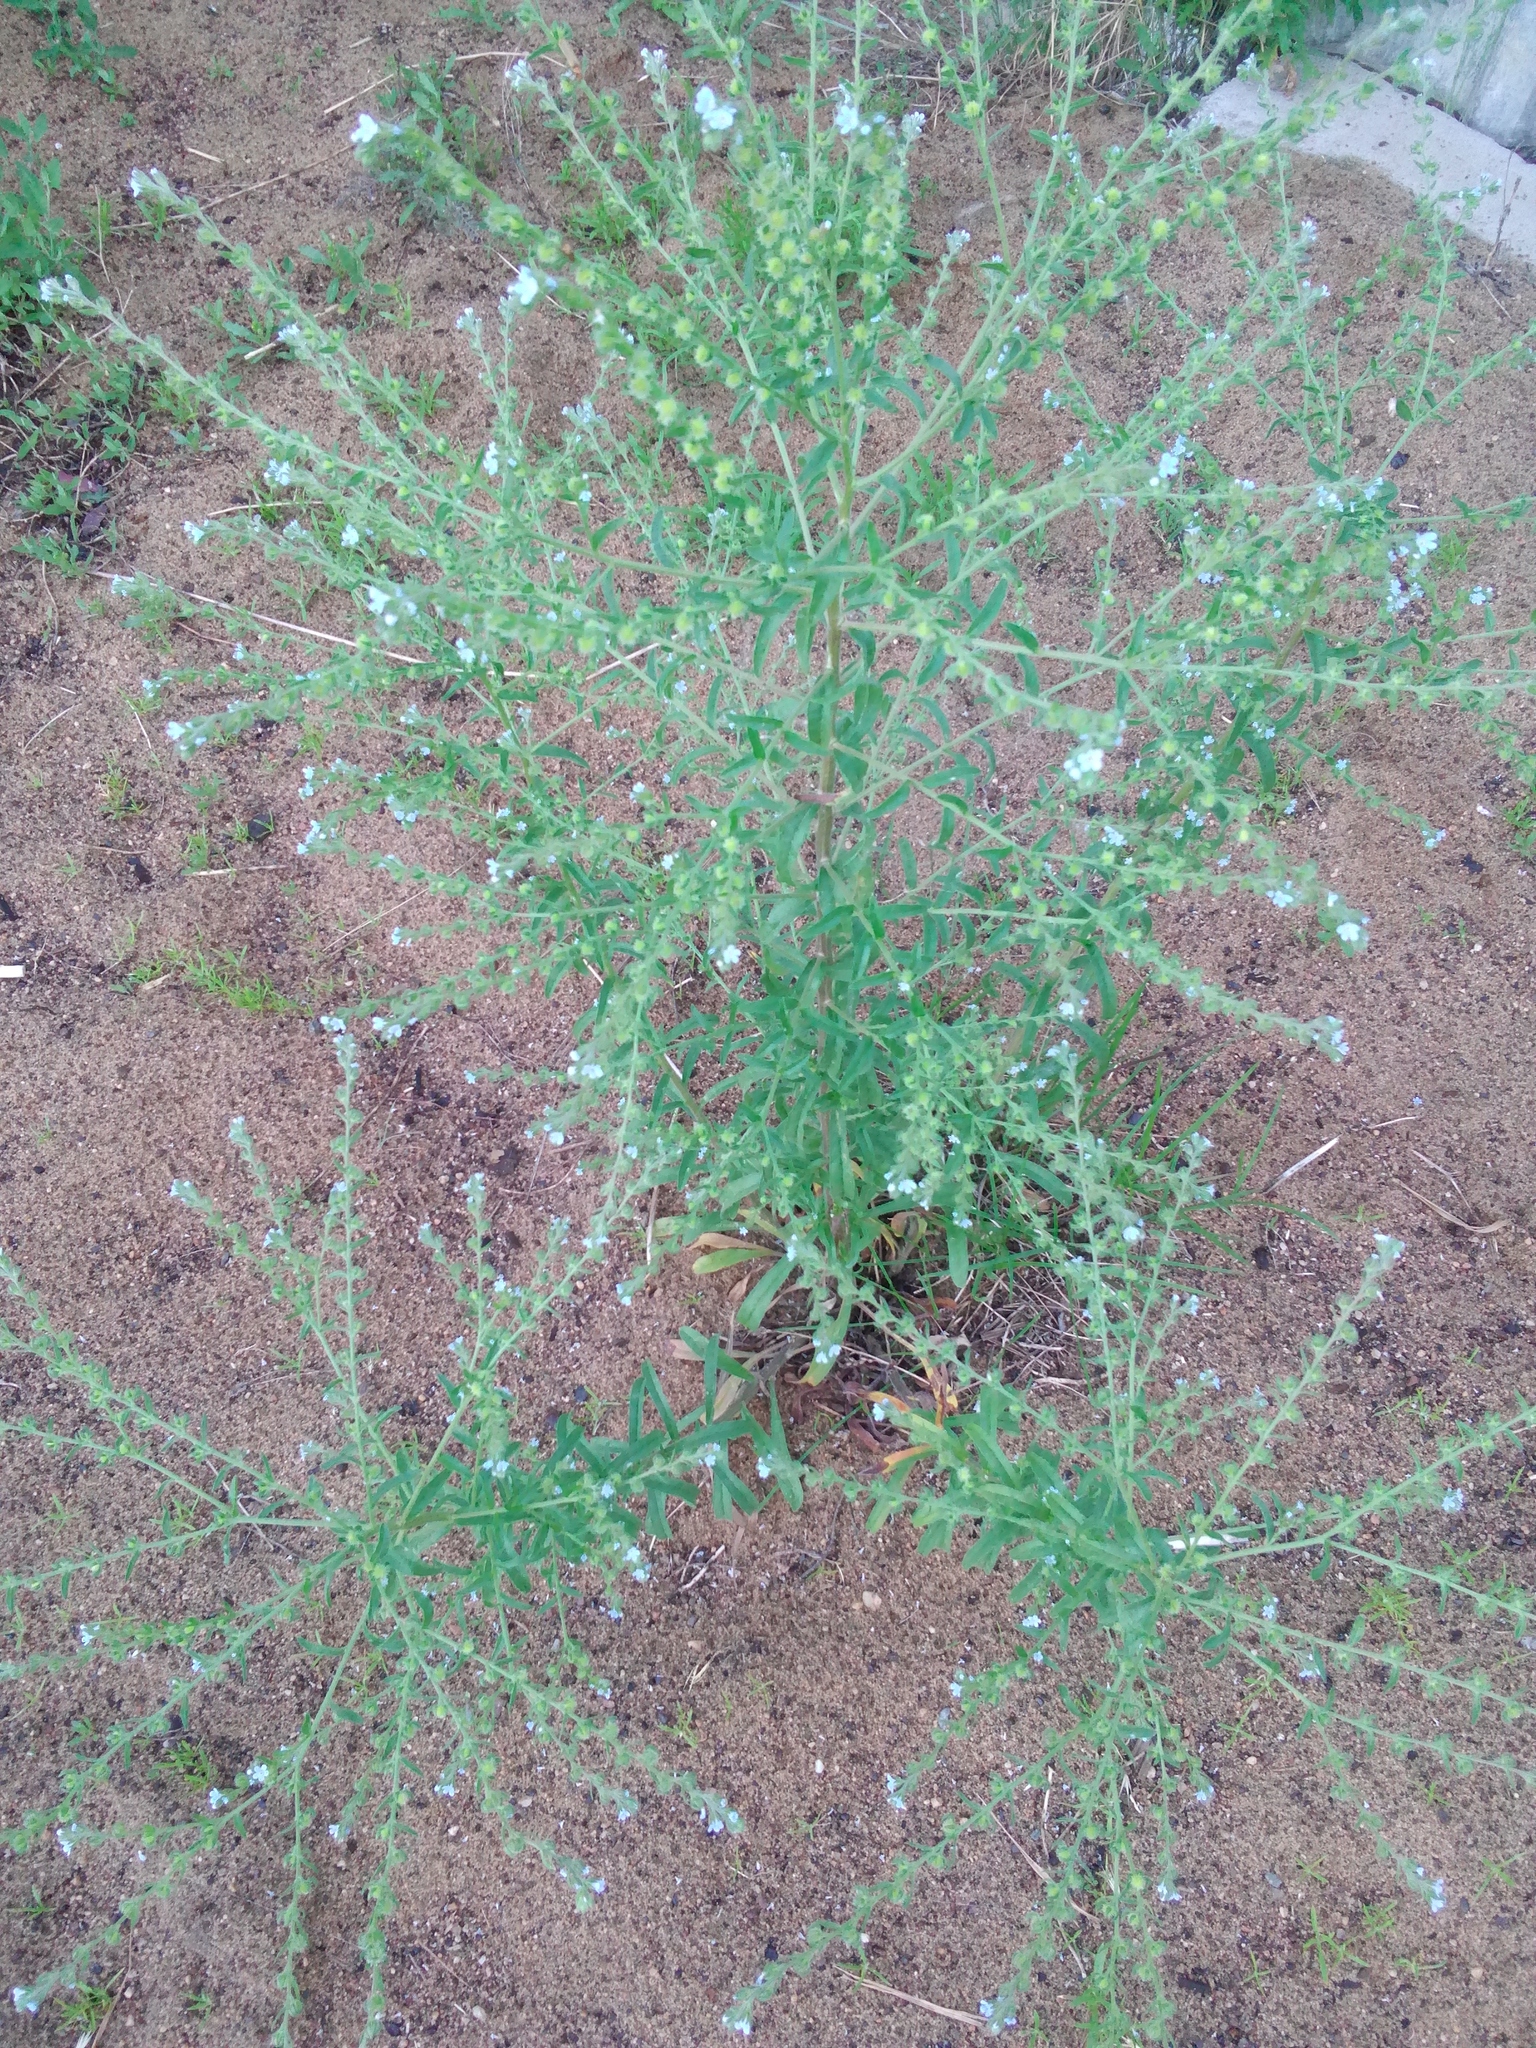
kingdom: Plantae
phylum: Tracheophyta
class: Magnoliopsida
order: Boraginales
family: Boraginaceae
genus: Lappula
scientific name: Lappula squarrosa
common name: European stickseed
